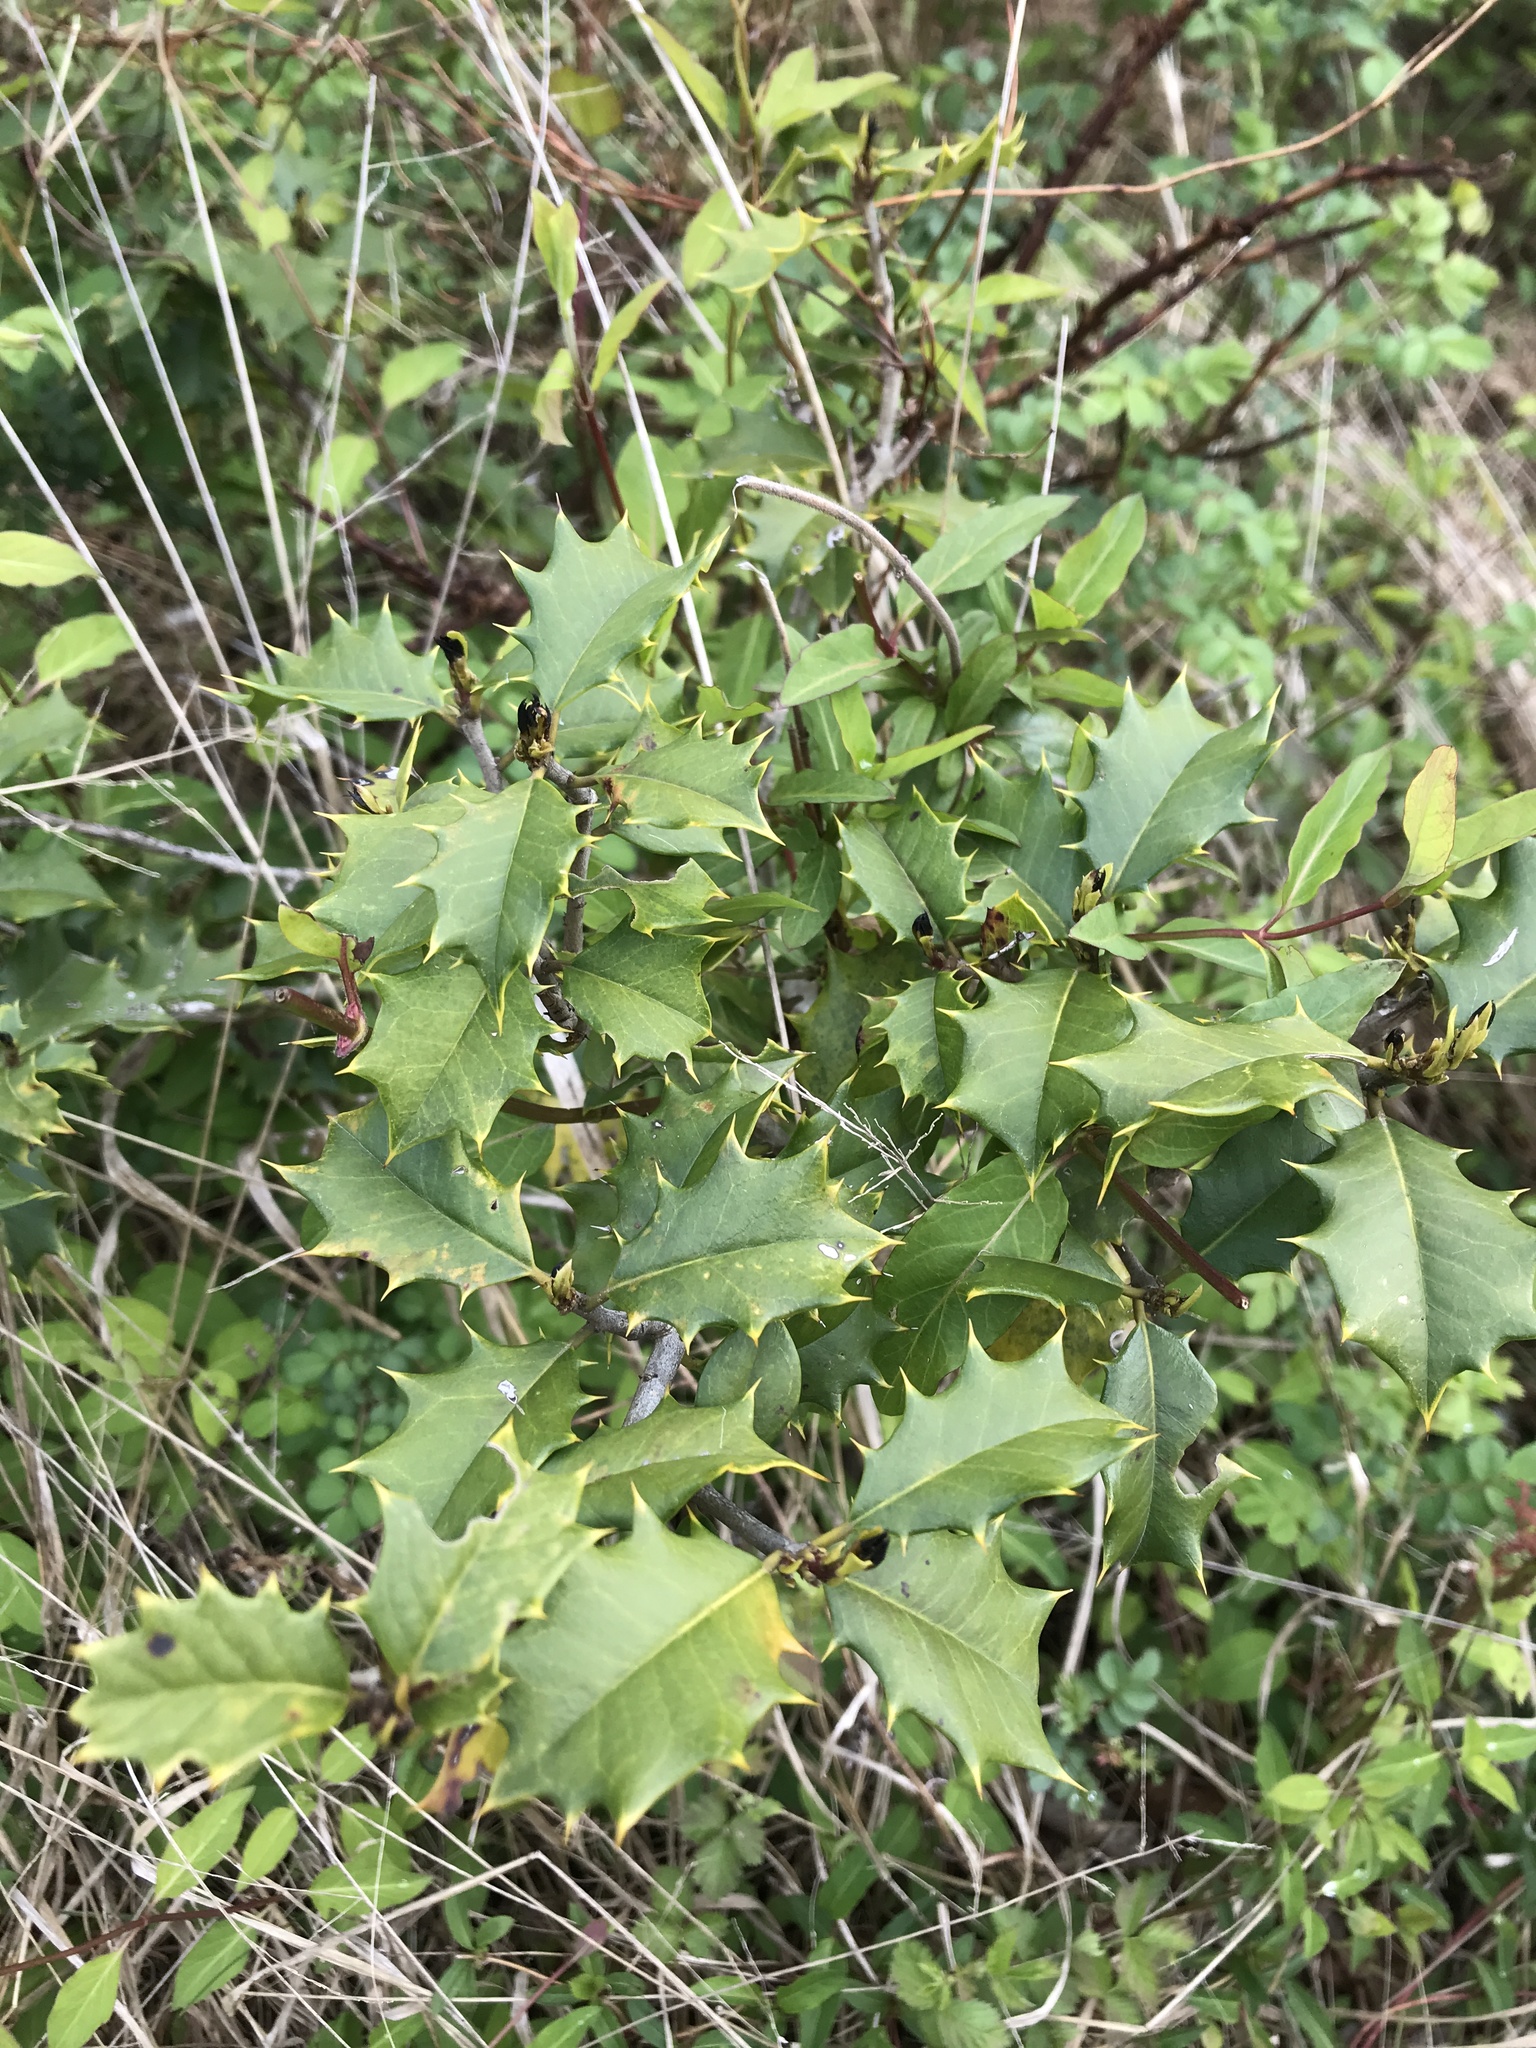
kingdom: Plantae
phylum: Tracheophyta
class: Magnoliopsida
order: Aquifoliales
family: Aquifoliaceae
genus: Ilex
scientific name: Ilex opaca
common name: American holly
